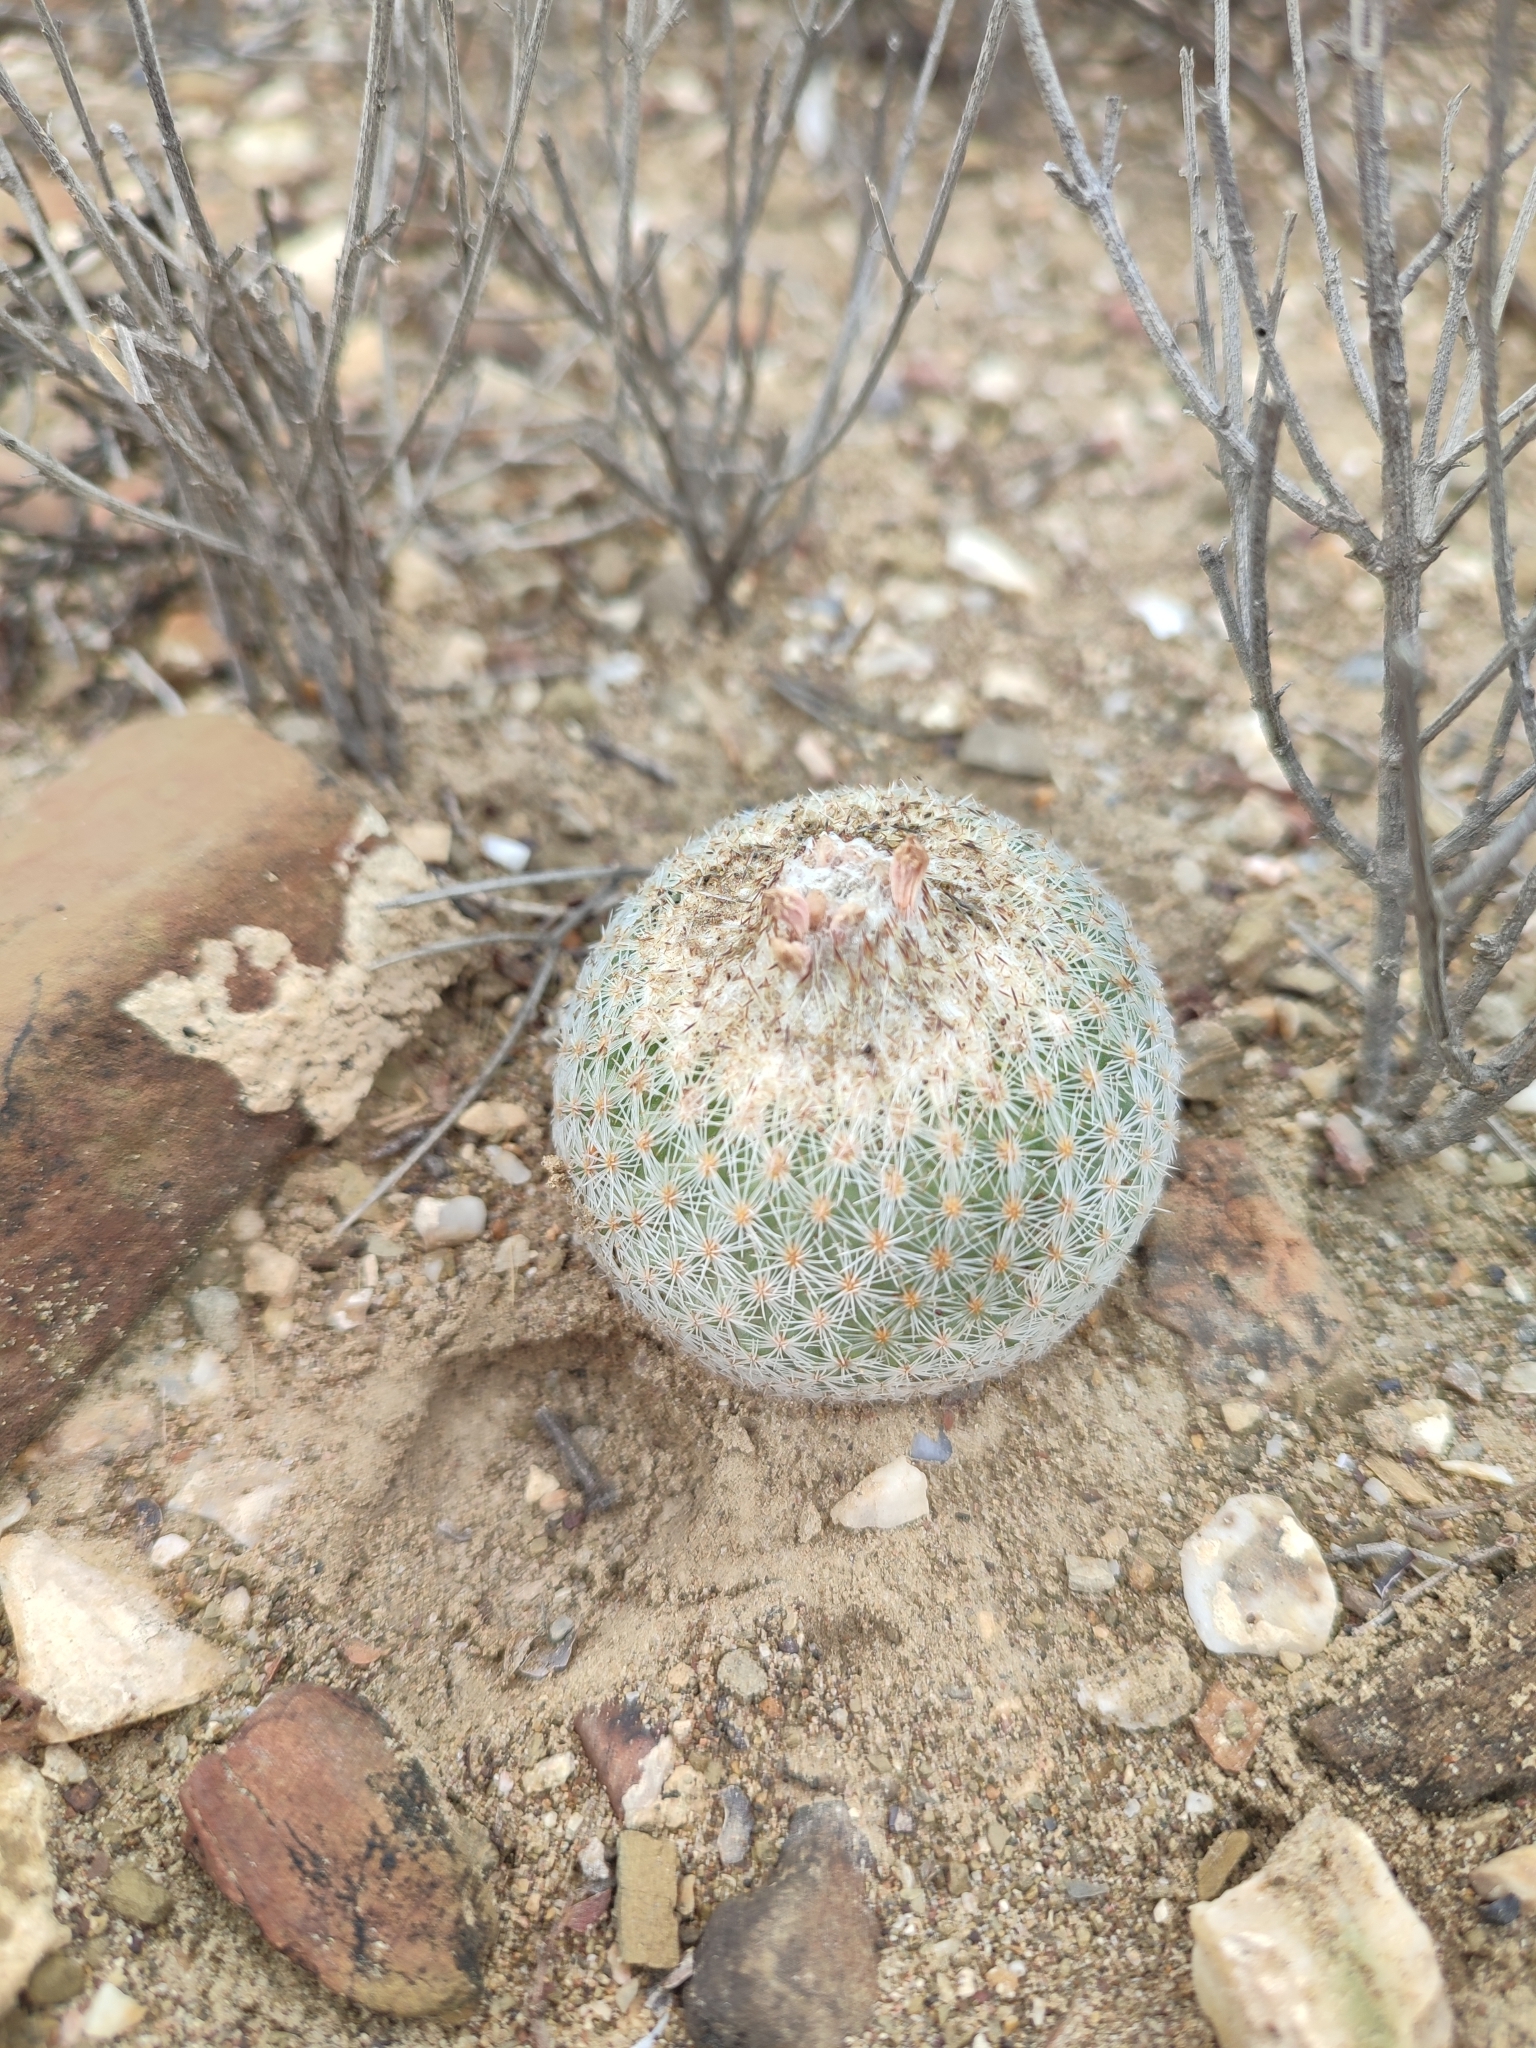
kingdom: Plantae
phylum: Tracheophyta
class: Magnoliopsida
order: Caryophyllales
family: Cactaceae
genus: Epithelantha
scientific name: Epithelantha greggii
